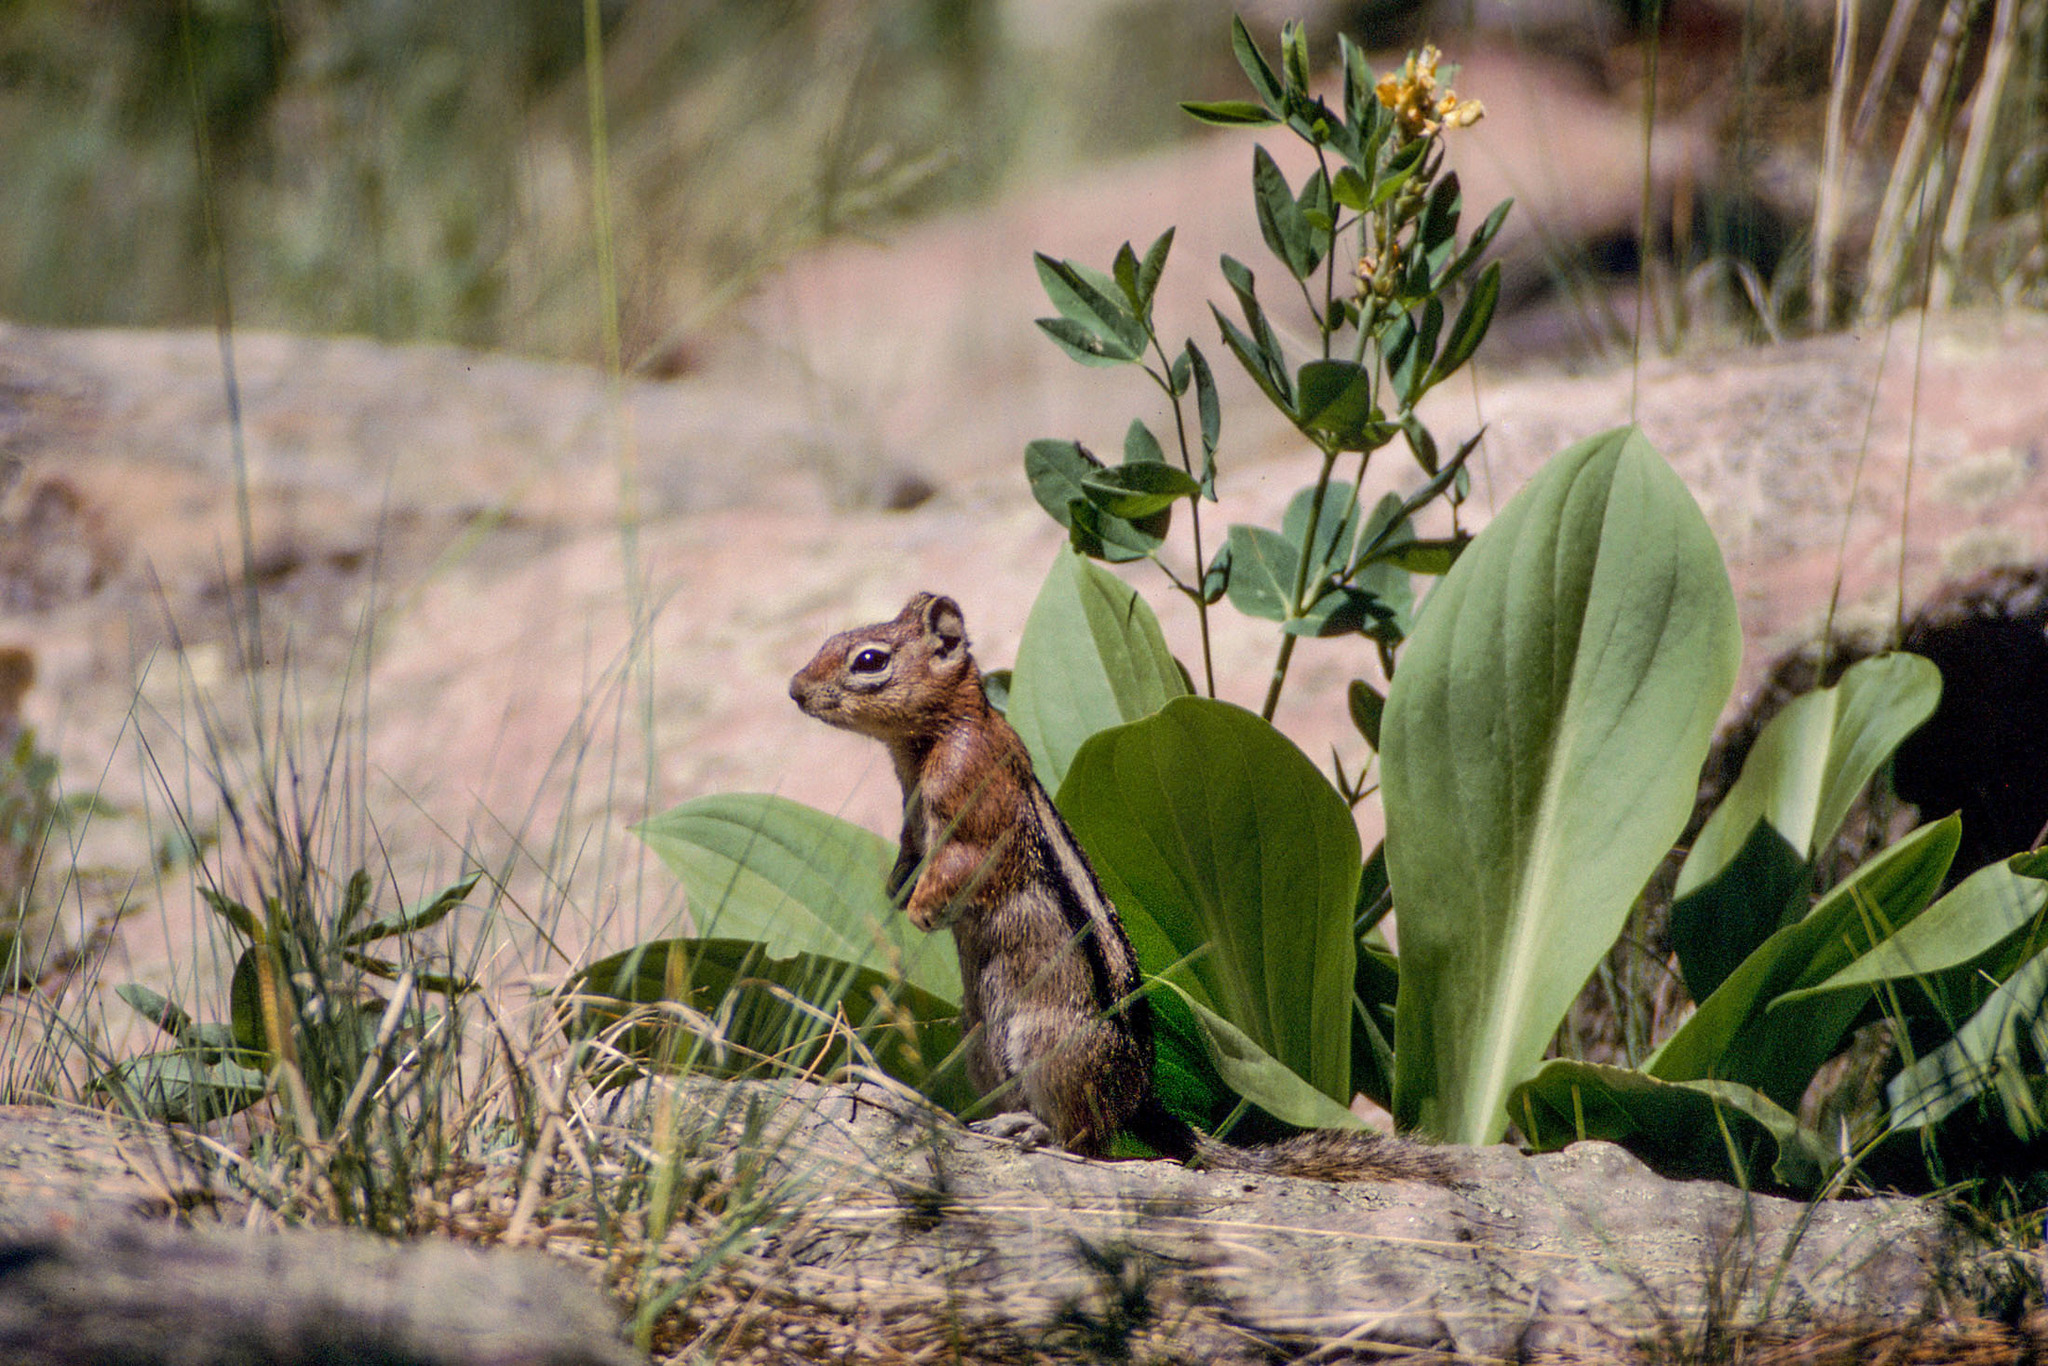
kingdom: Animalia
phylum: Chordata
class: Mammalia
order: Rodentia
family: Sciuridae
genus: Callospermophilus
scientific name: Callospermophilus lateralis
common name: Golden-mantled ground squirrel
